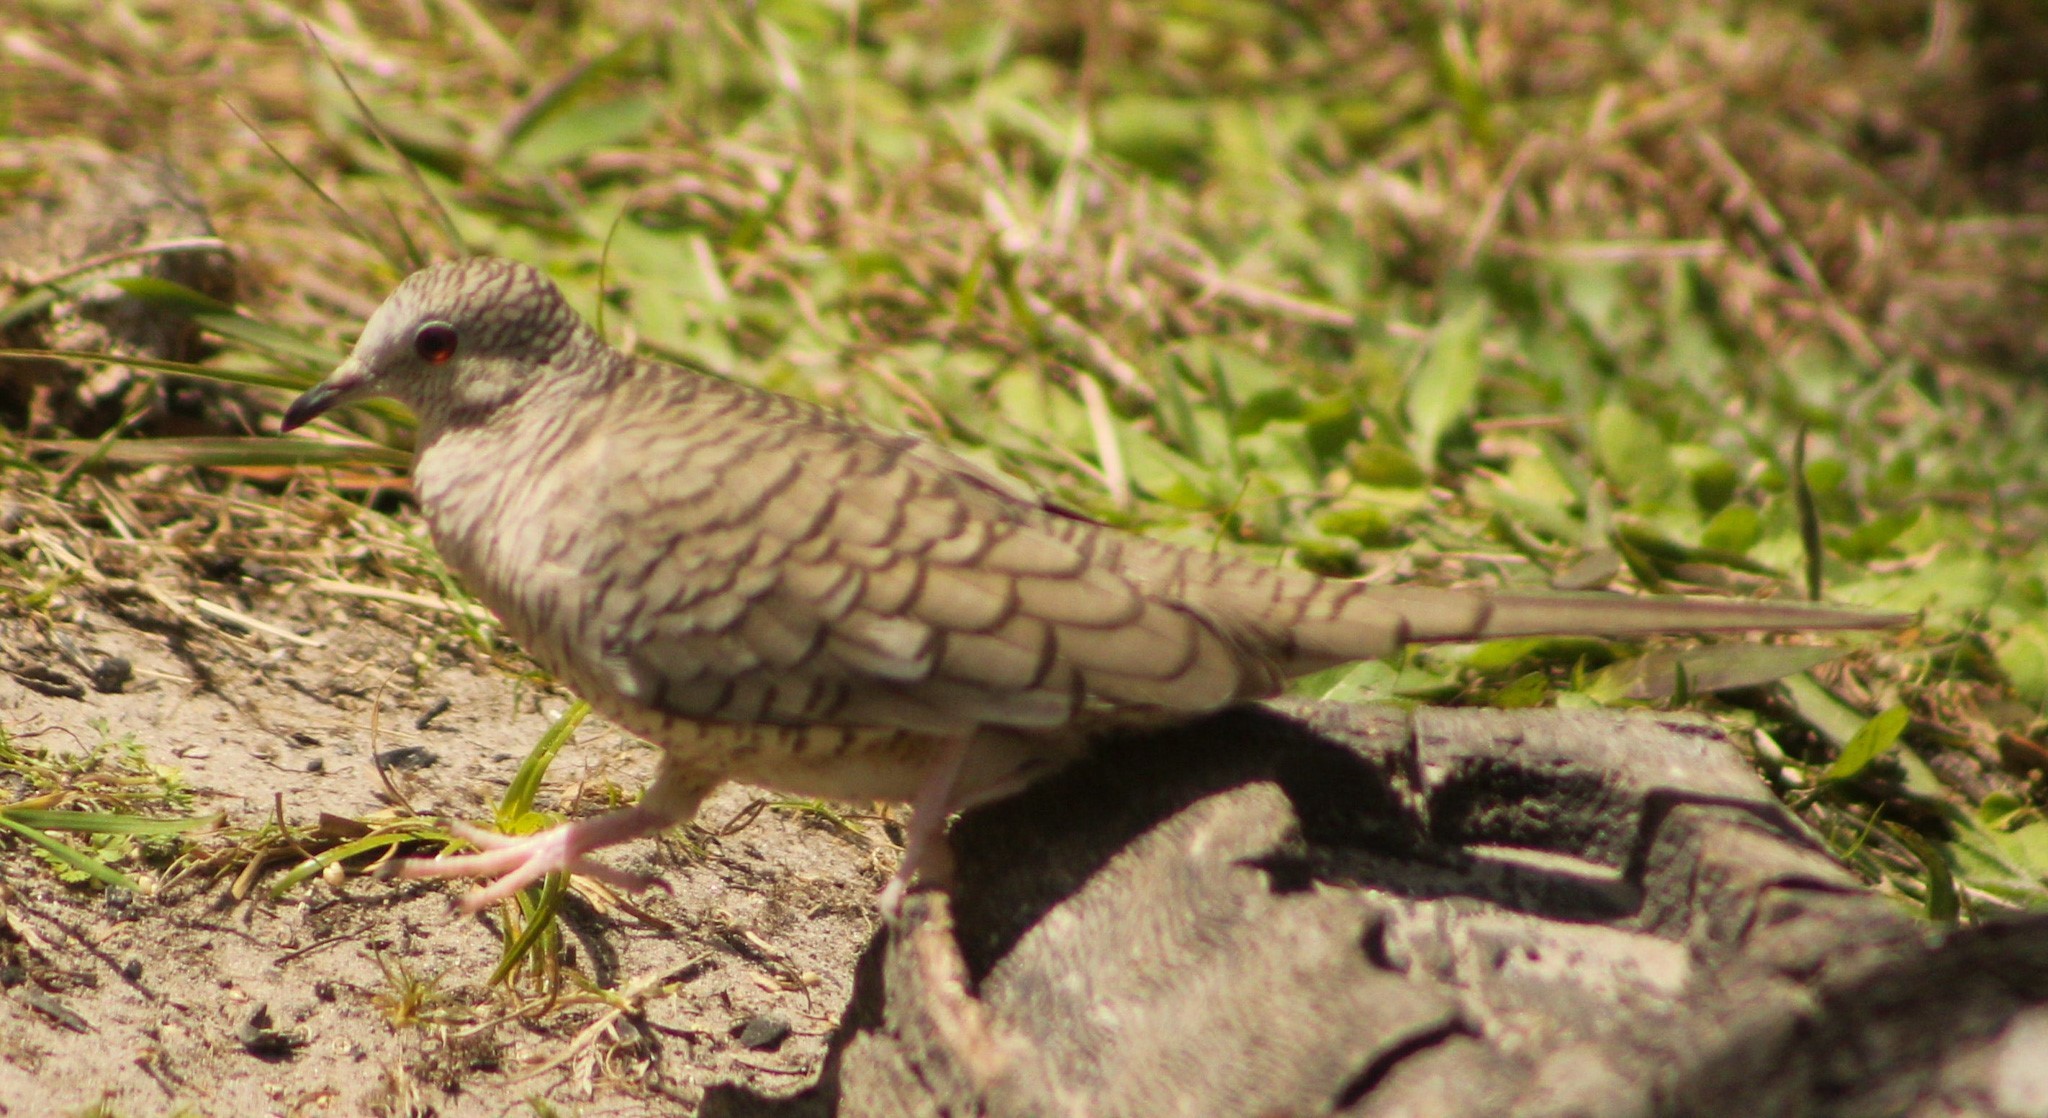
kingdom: Animalia
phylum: Chordata
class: Aves
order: Columbiformes
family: Columbidae
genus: Columbina
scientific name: Columbina inca
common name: Inca dove
